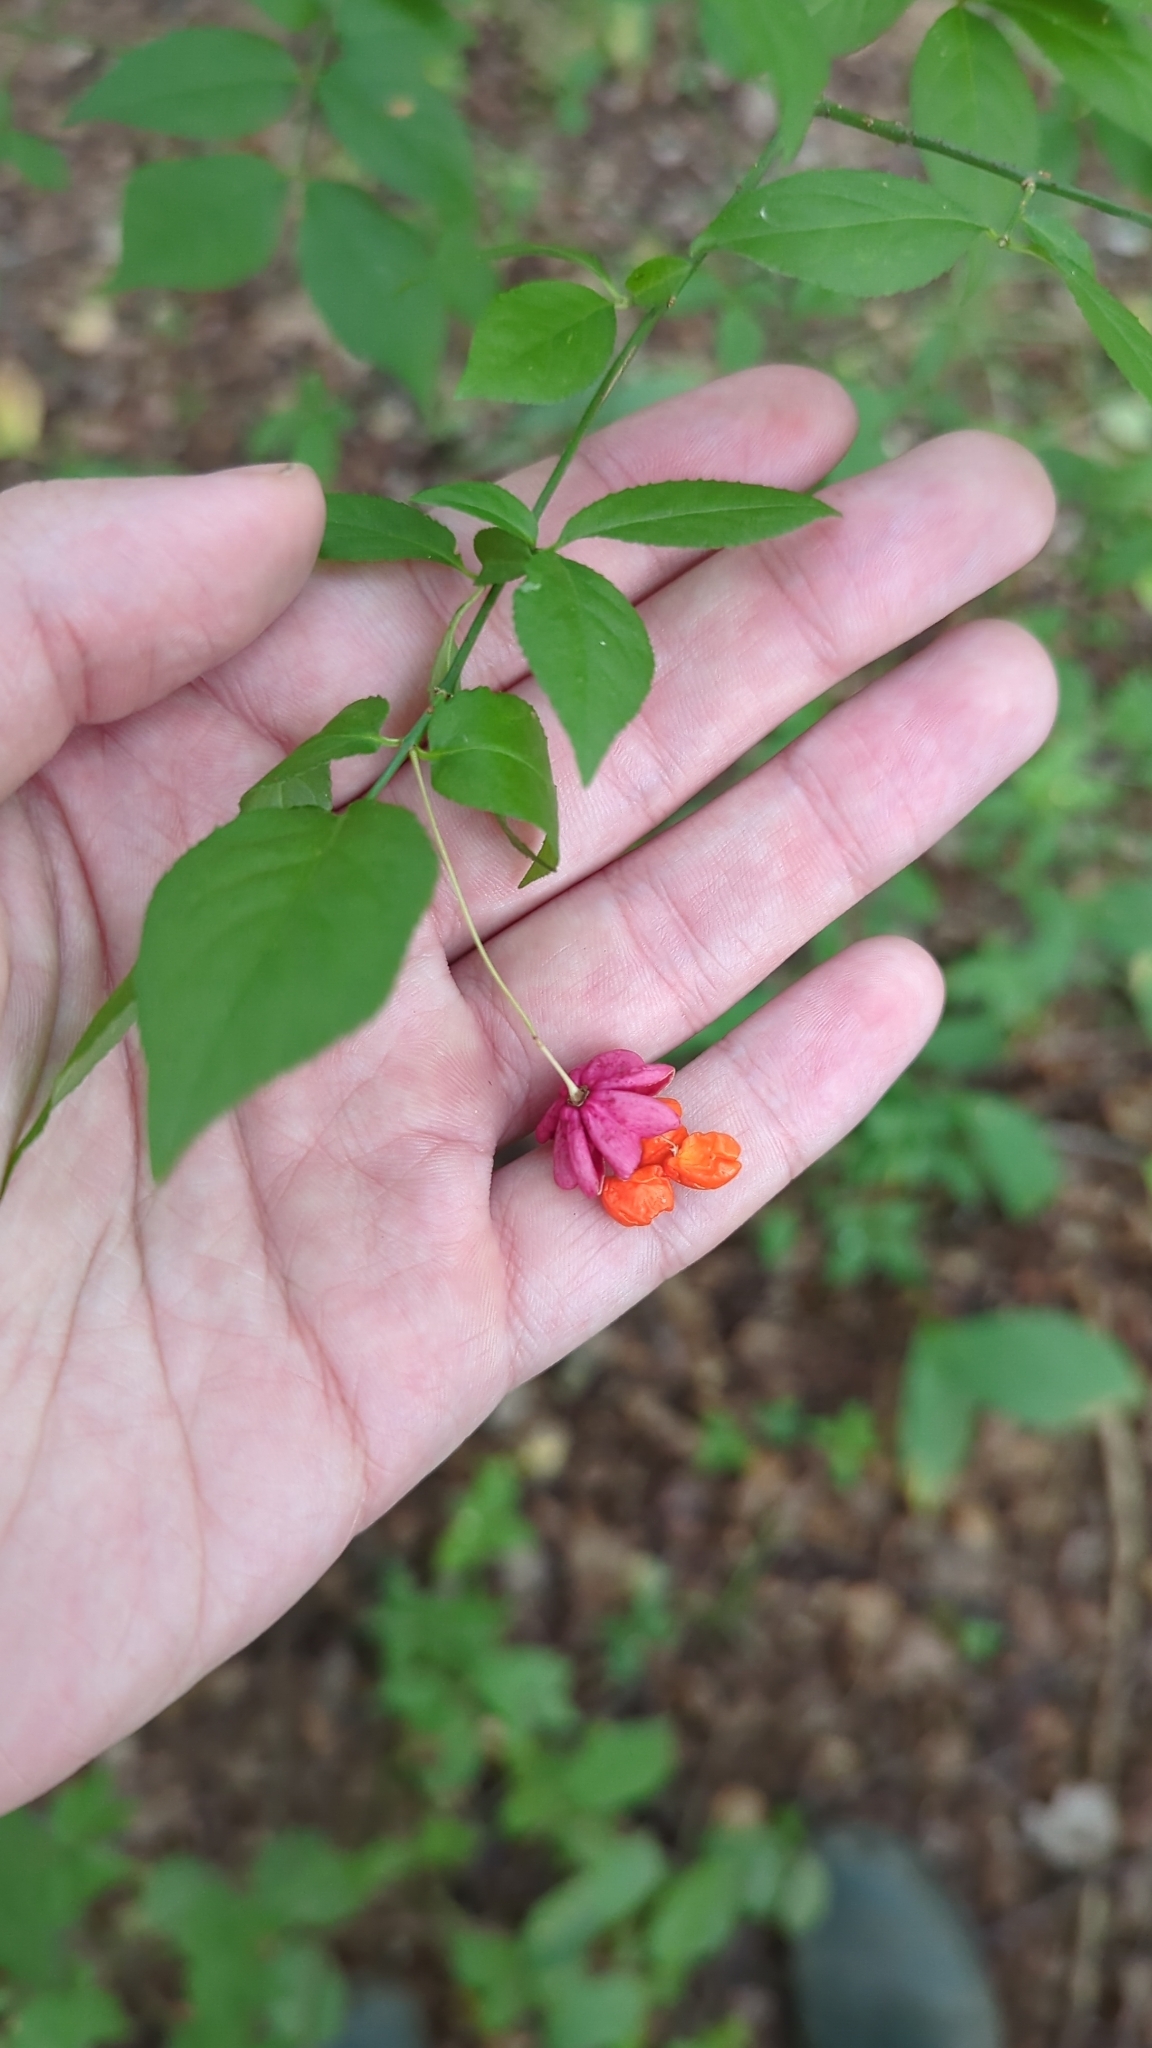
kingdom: Plantae
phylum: Tracheophyta
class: Magnoliopsida
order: Celastrales
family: Celastraceae
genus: Euonymus
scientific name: Euonymus verrucosus
